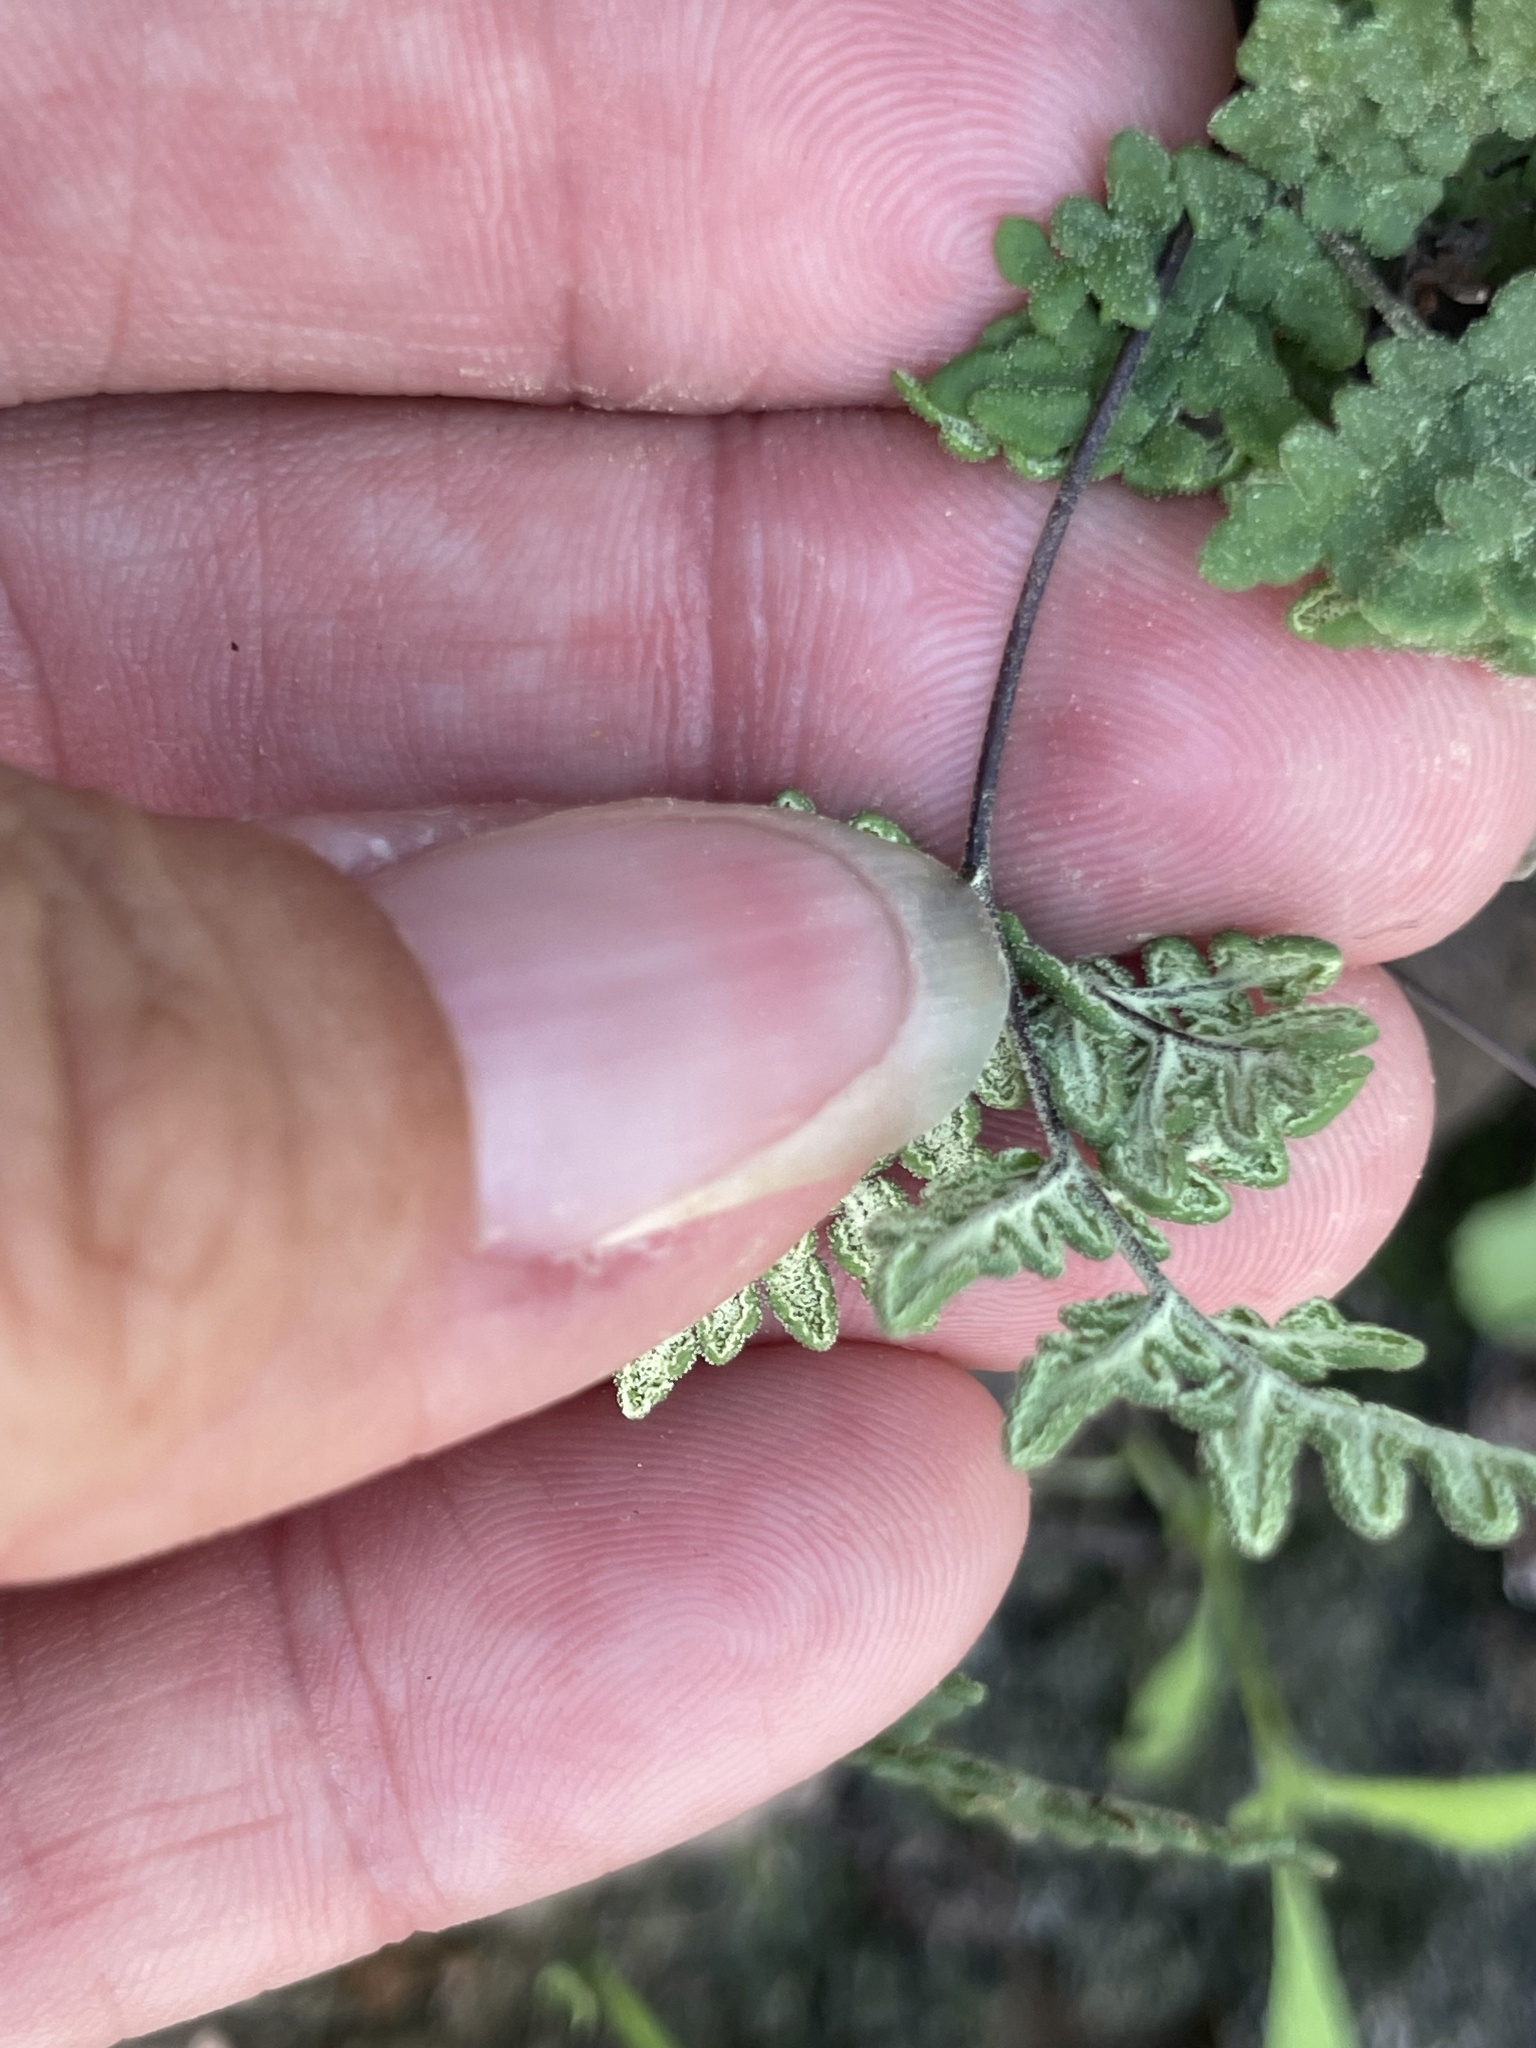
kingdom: Plantae
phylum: Tracheophyta
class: Polypodiopsida
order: Polypodiales
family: Pteridaceae
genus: Notholaena
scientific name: Notholaena californica
